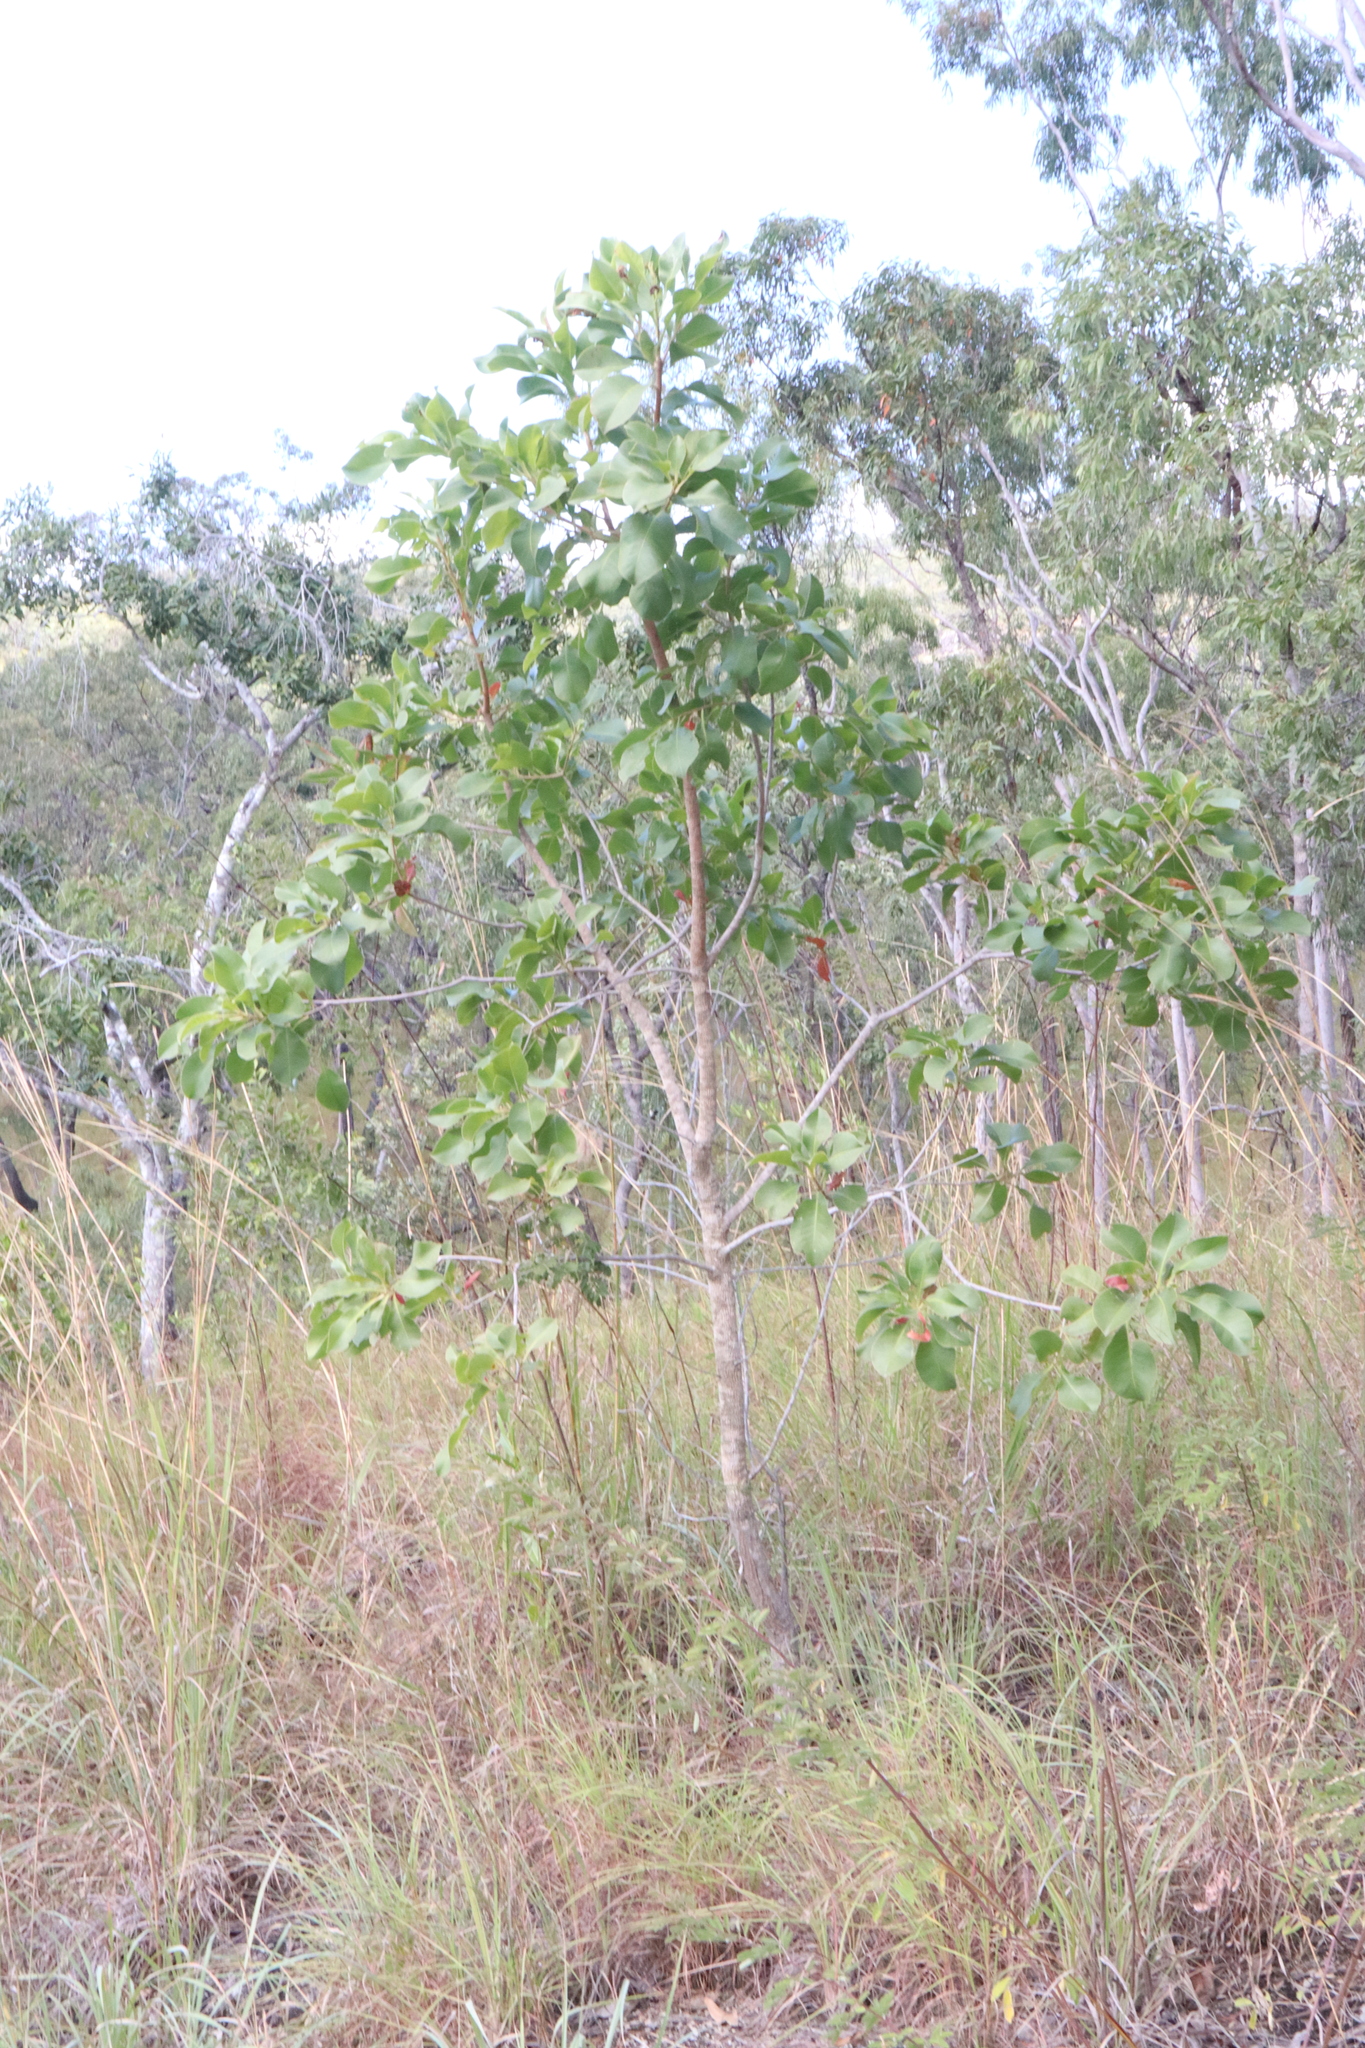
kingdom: Plantae
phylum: Tracheophyta
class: Magnoliopsida
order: Ericales
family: Lecythidaceae
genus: Planchonia
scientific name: Planchonia careya
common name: Cockatoo-apple
